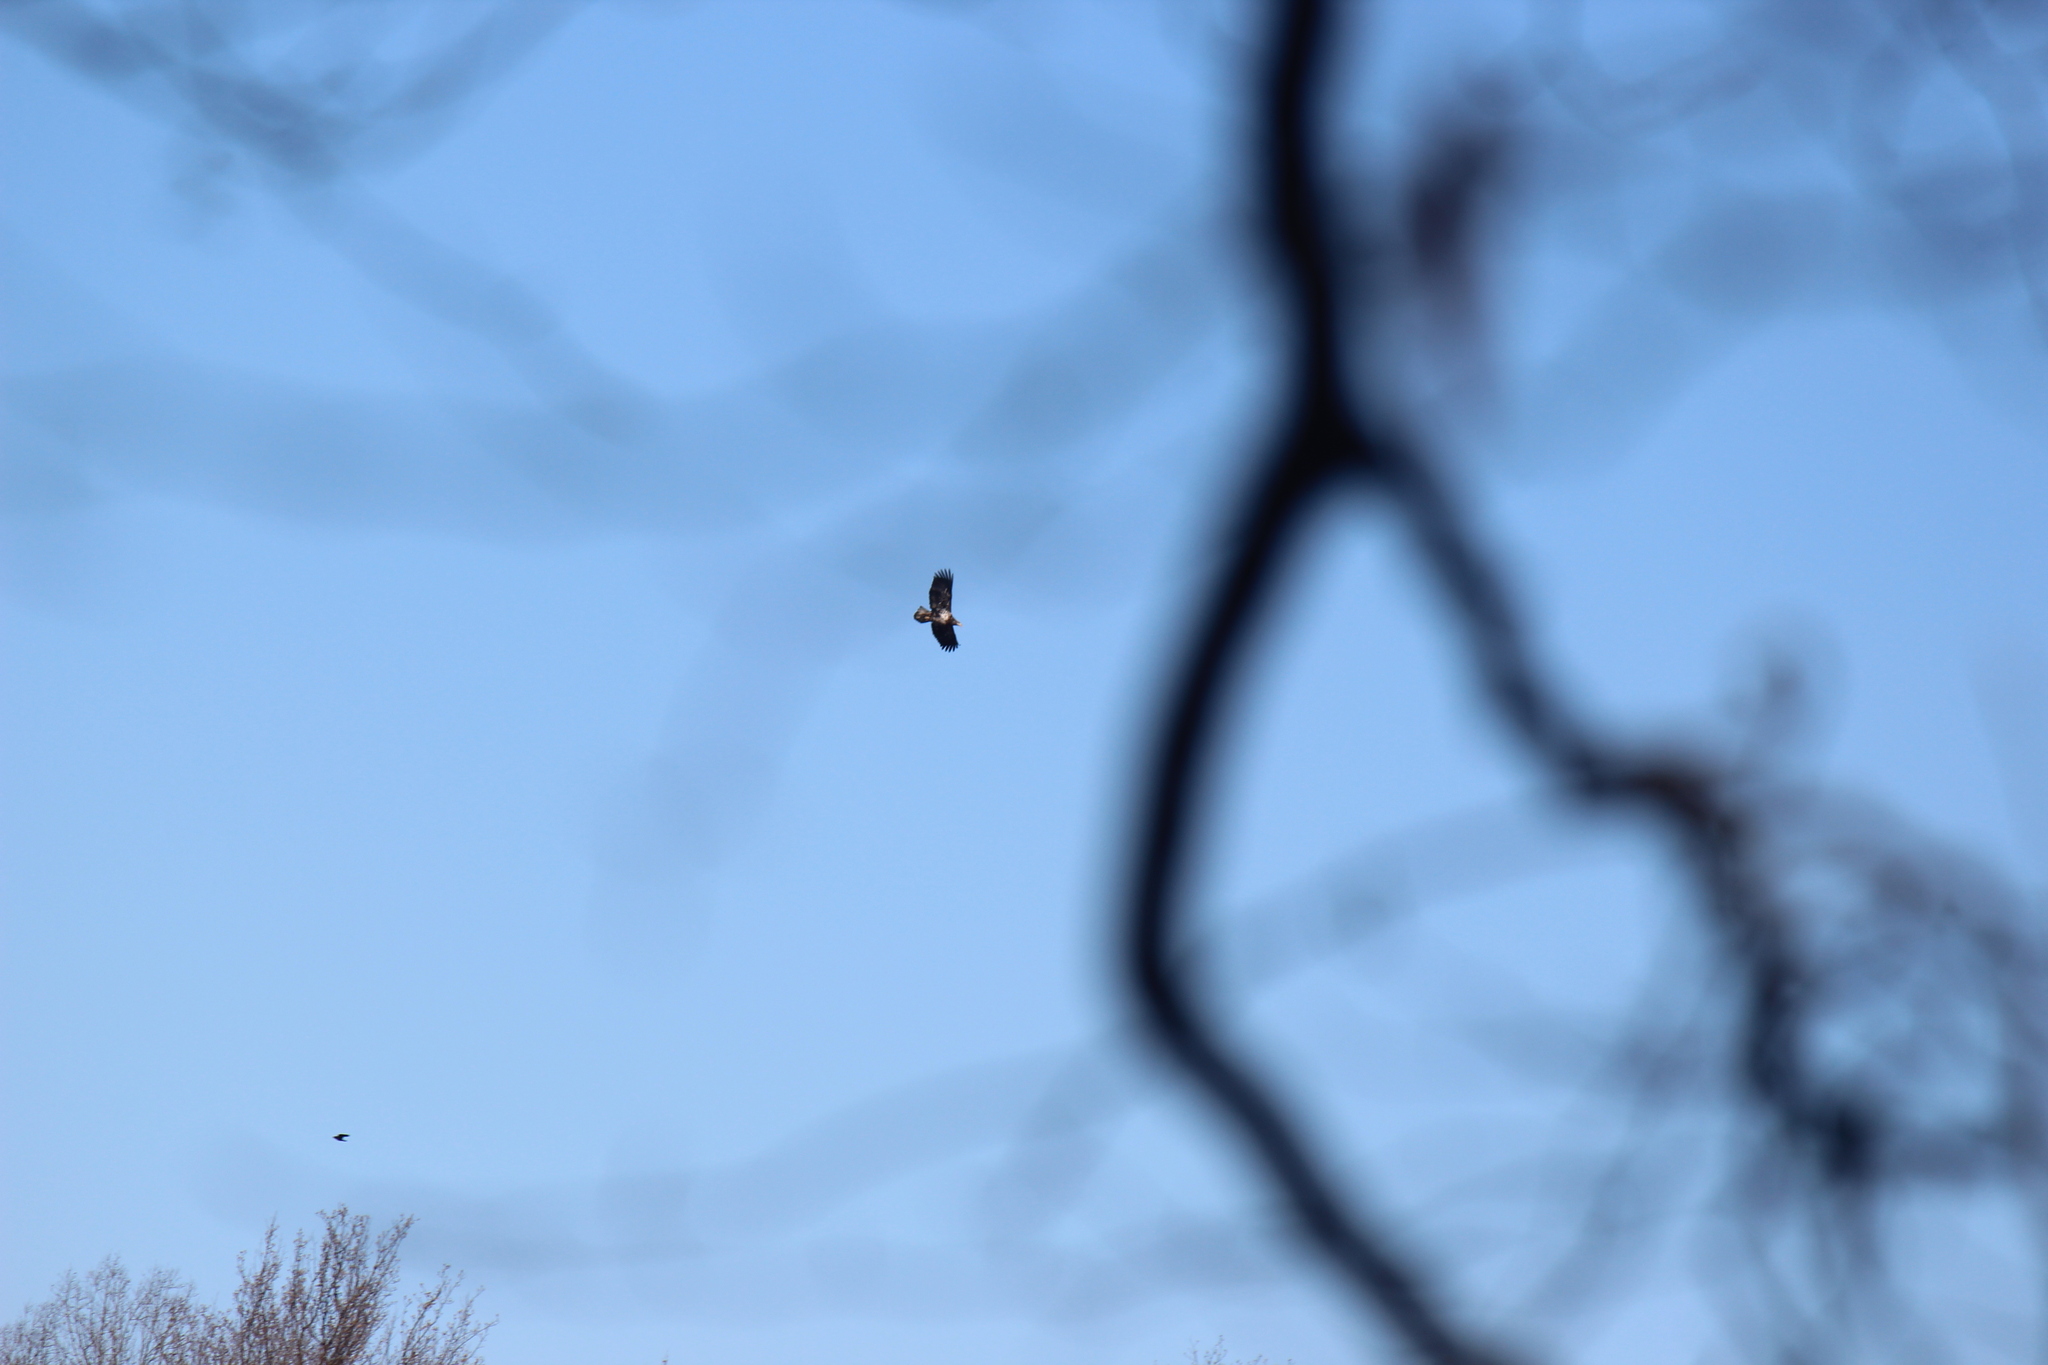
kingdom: Animalia
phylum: Chordata
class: Aves
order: Accipitriformes
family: Accipitridae
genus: Haliaeetus
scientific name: Haliaeetus leucocephalus
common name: Bald eagle
